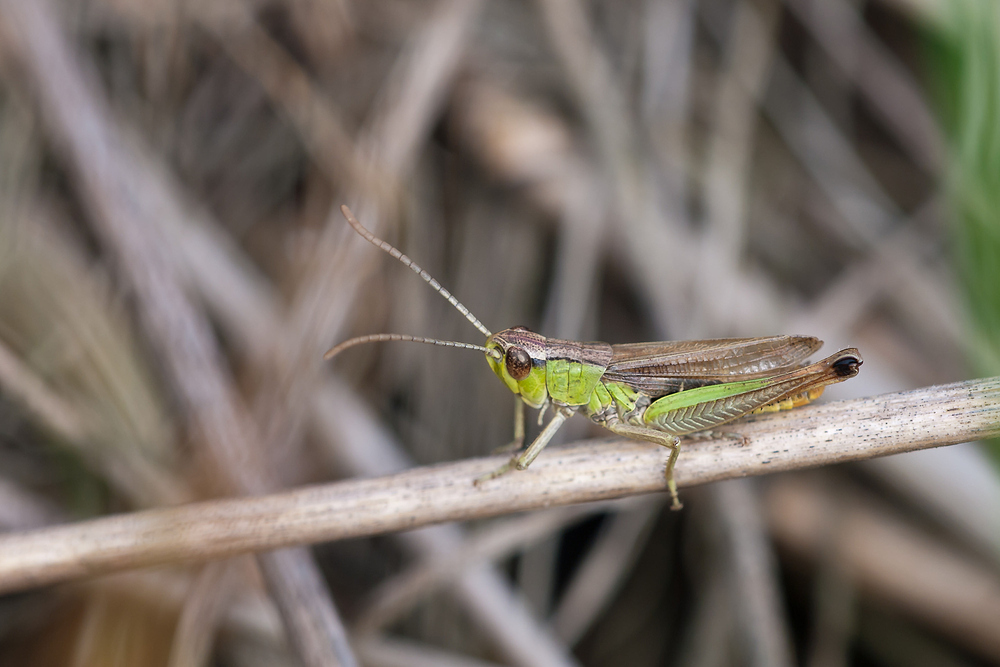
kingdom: Animalia
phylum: Arthropoda
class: Insecta
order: Orthoptera
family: Acrididae
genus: Pseudochorthippus
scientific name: Pseudochorthippus parallelus
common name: Meadow grasshopper
